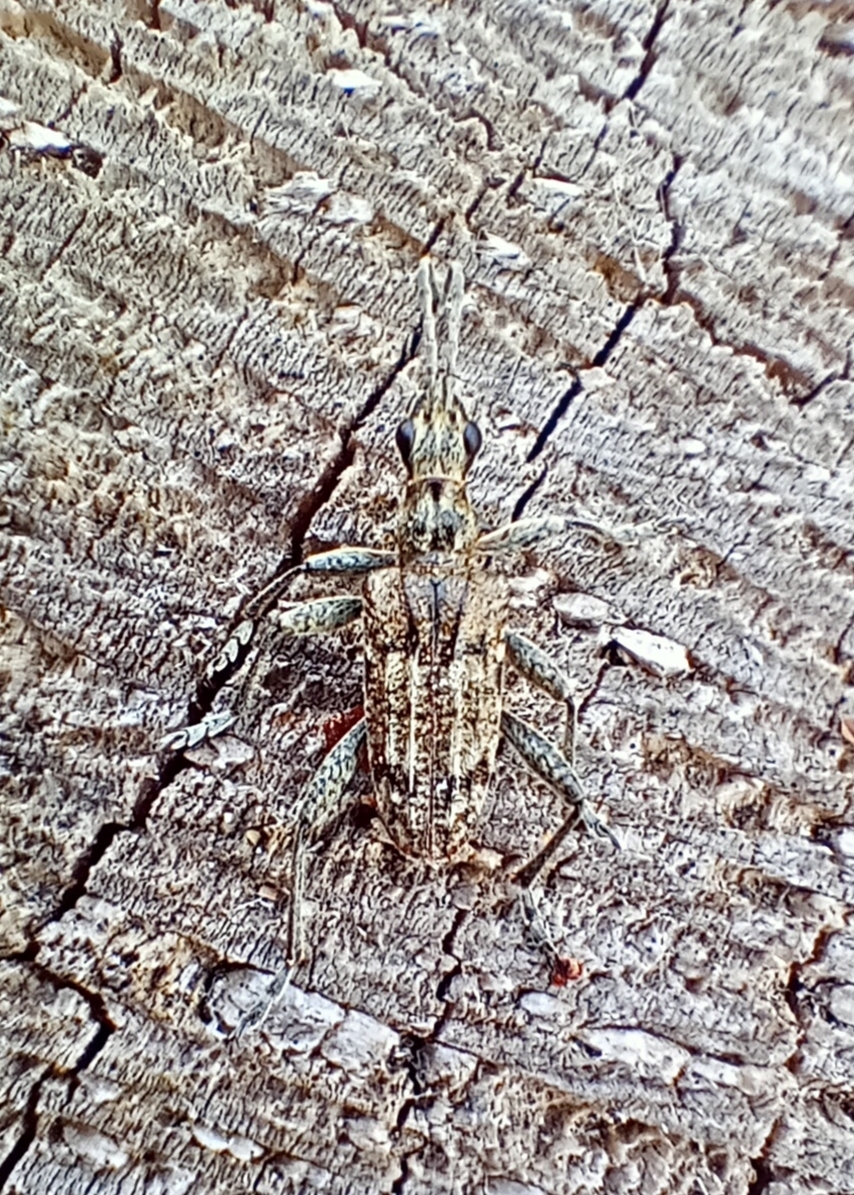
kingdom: Animalia
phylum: Arthropoda
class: Insecta
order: Coleoptera
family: Cerambycidae
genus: Rhagium
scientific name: Rhagium inquisitor
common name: Ribbed pine borer
